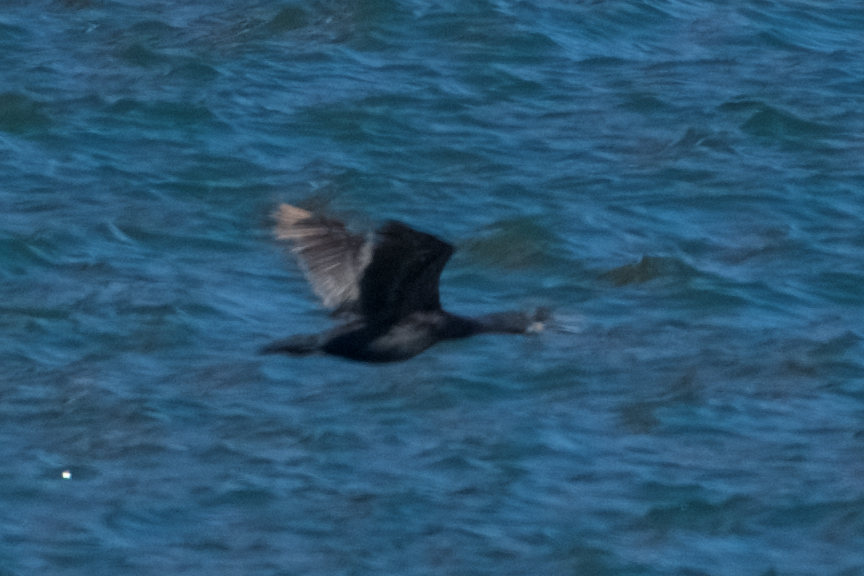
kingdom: Animalia
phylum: Chordata
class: Aves
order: Suliformes
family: Phalacrocoracidae
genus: Urile
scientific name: Urile penicillatus
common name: Brandt's cormorant
